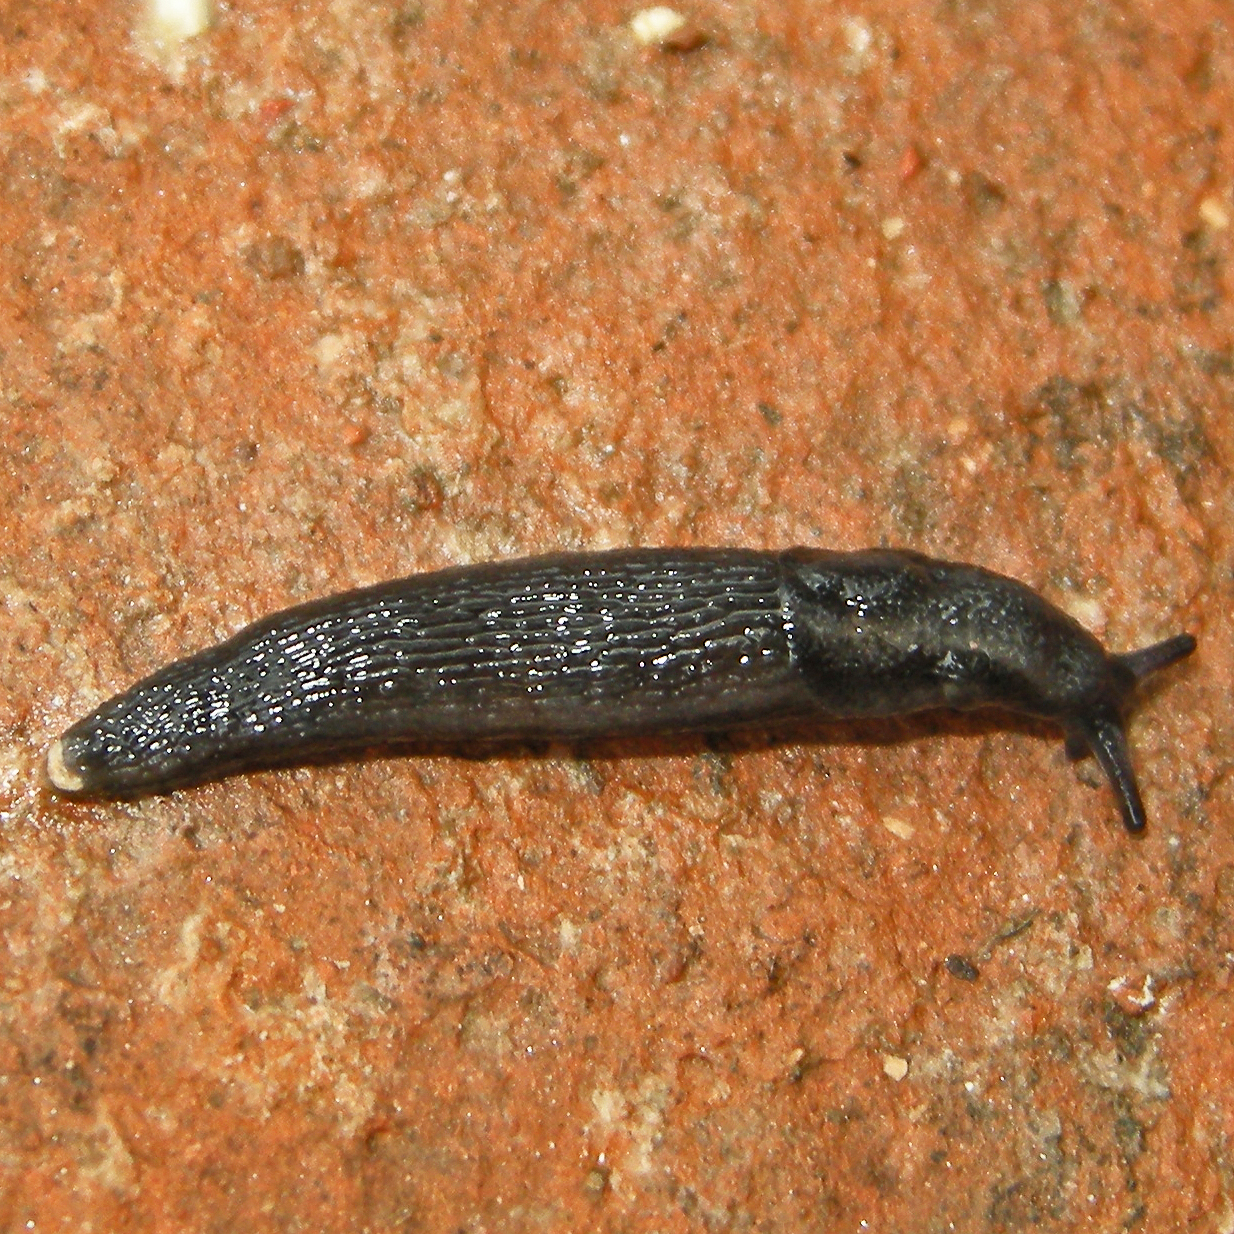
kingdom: Animalia
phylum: Mollusca
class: Gastropoda
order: Stylommatophora
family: Arionidae
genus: Kobeltia
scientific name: Kobeltia
